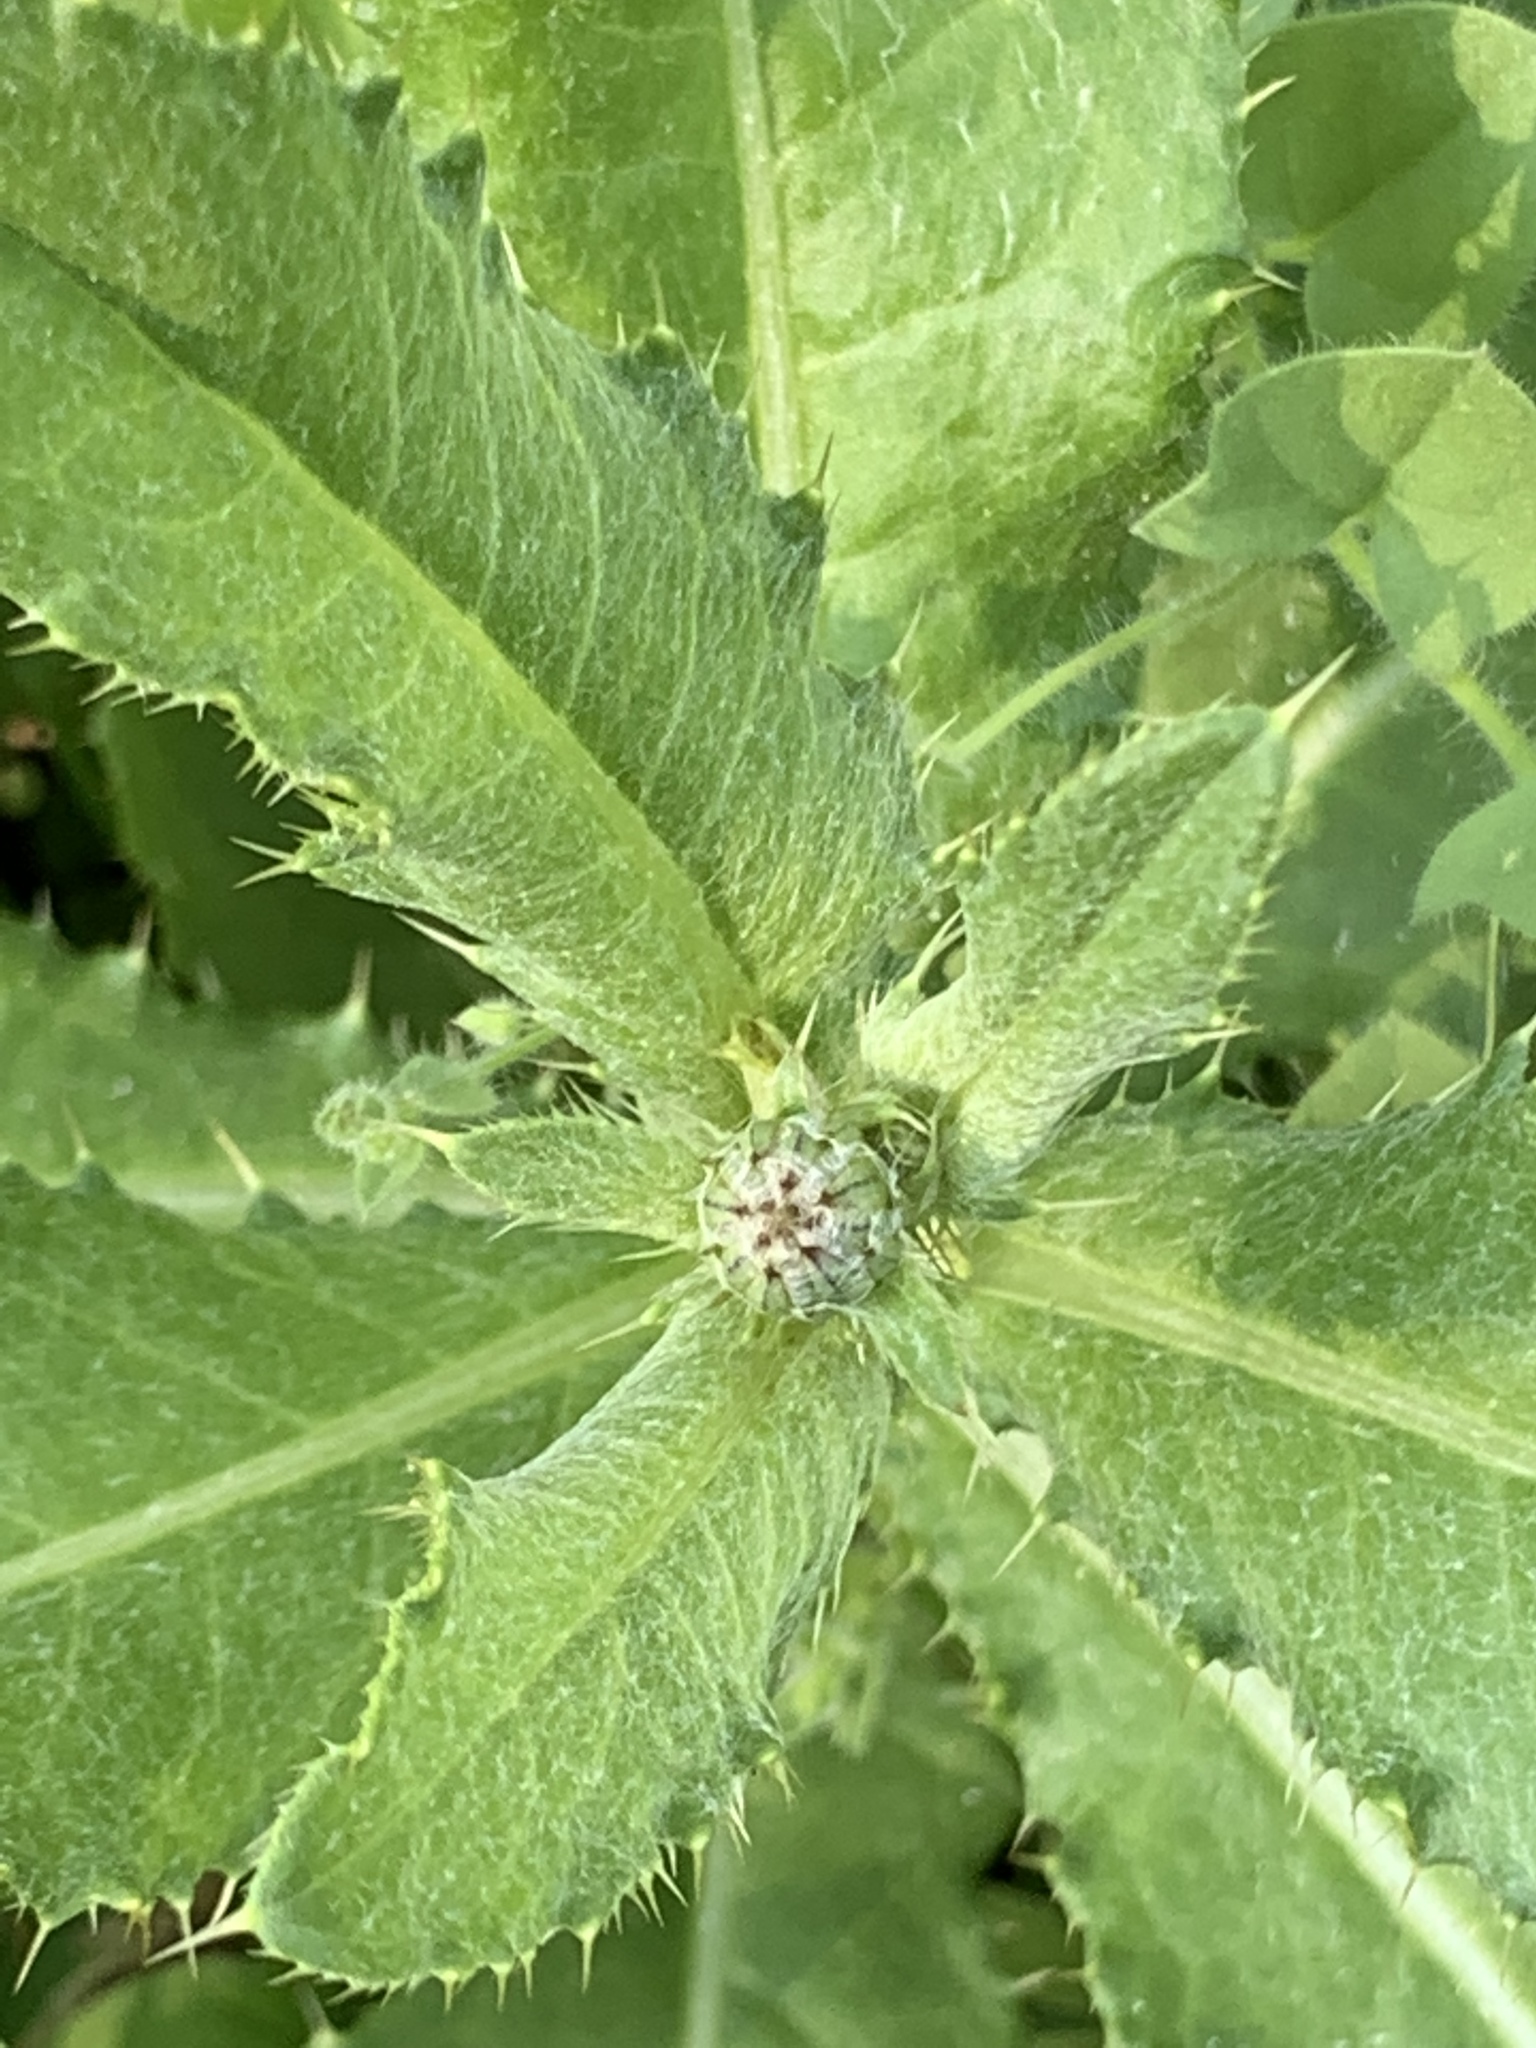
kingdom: Plantae
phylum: Tracheophyta
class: Magnoliopsida
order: Asterales
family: Asteraceae
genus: Cirsium
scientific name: Cirsium arvense
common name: Creeping thistle
